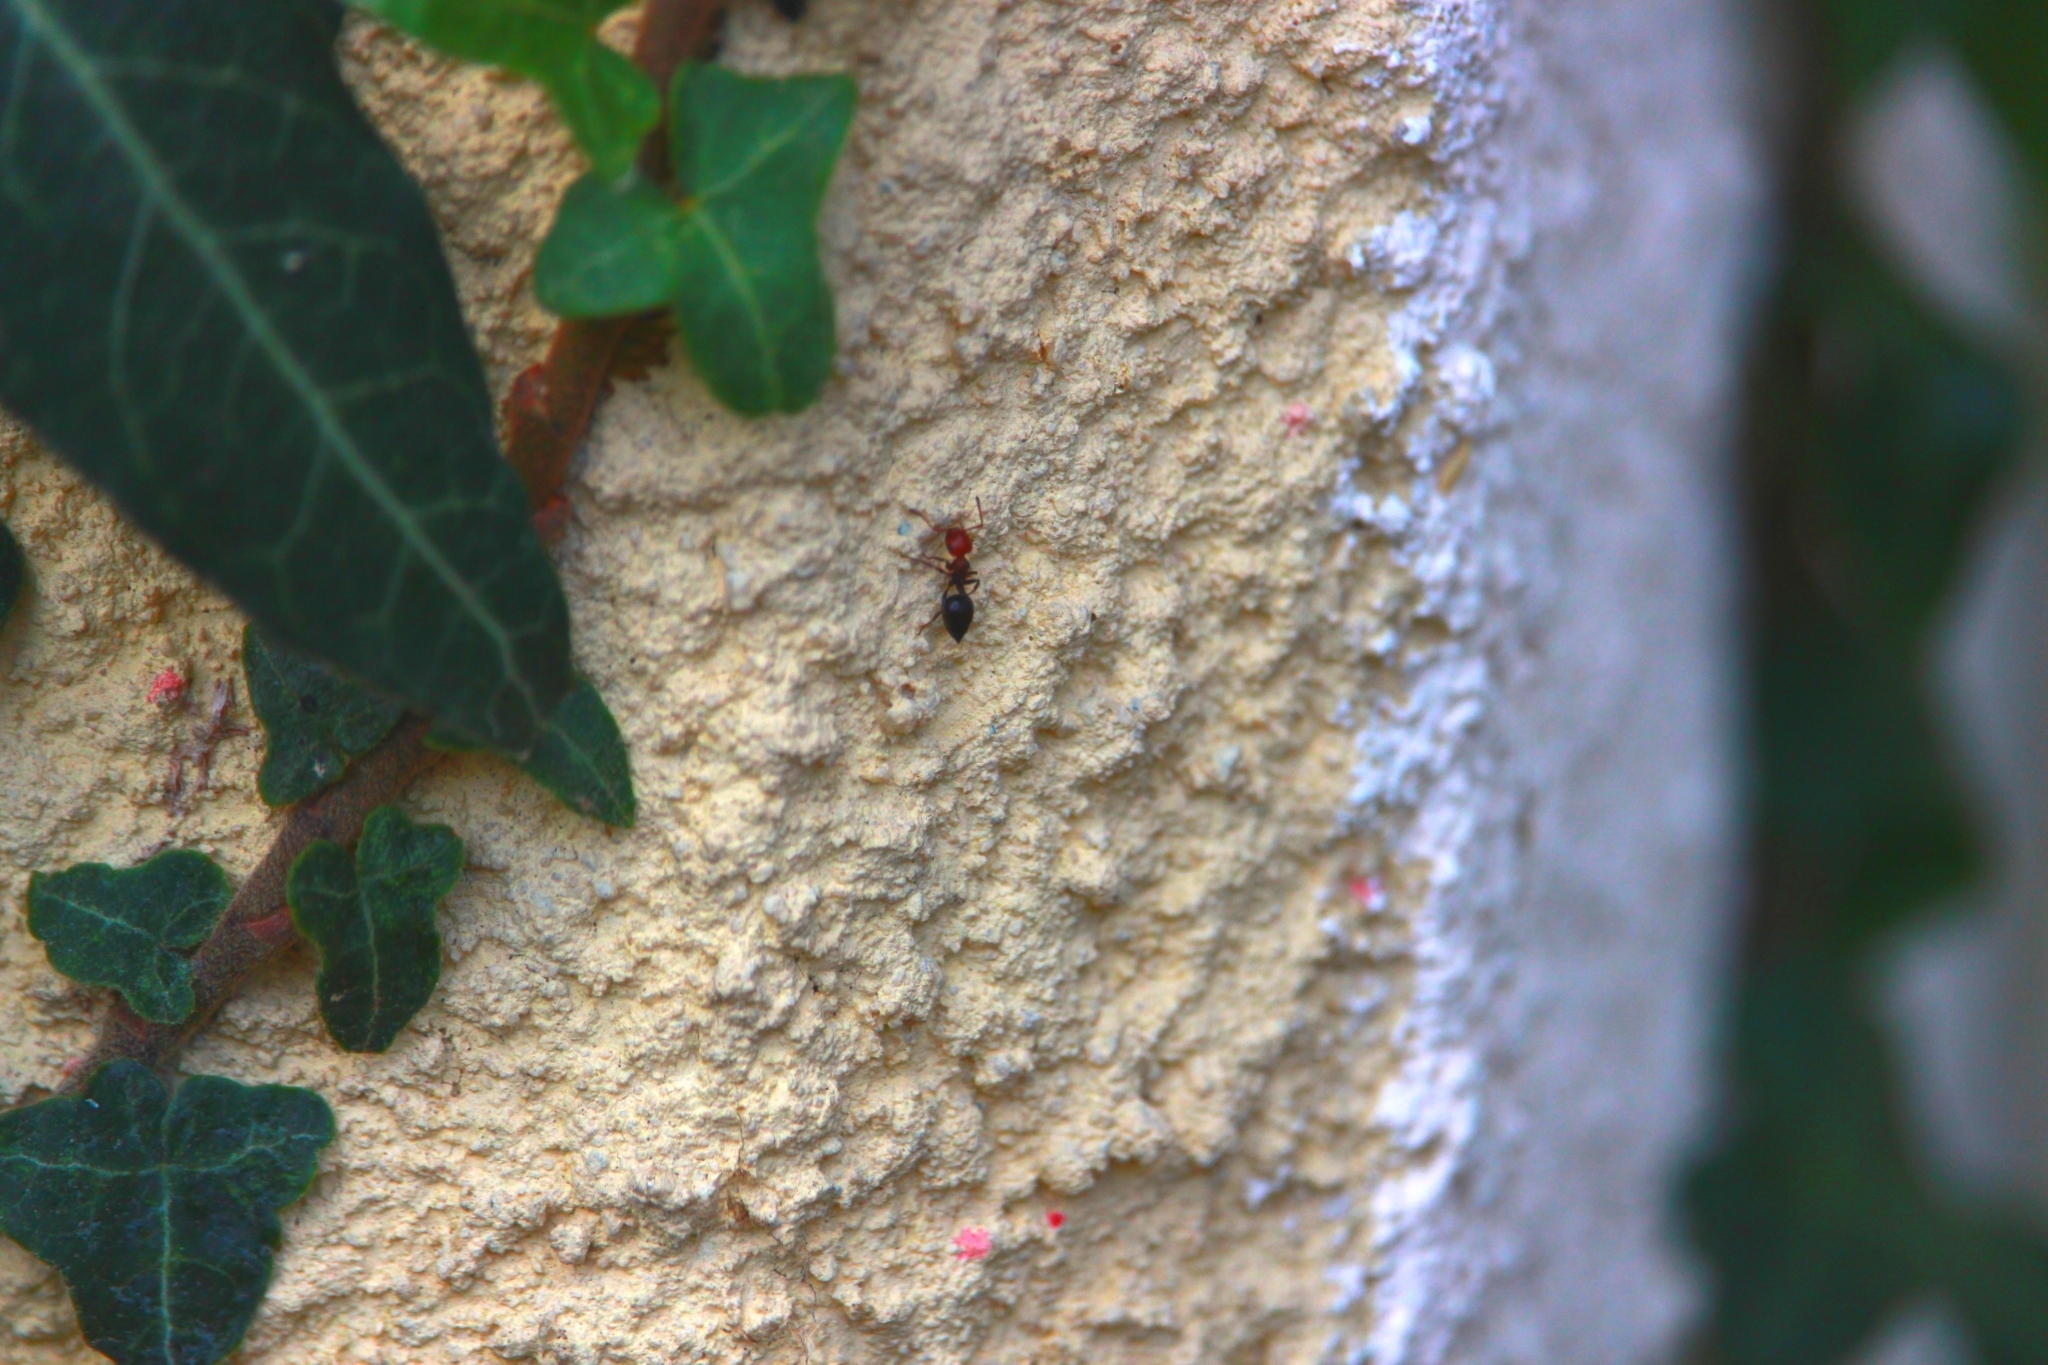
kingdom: Animalia
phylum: Arthropoda
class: Insecta
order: Hymenoptera
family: Formicidae
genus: Crematogaster
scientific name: Crematogaster scutellaris
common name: Fourmi du liège
